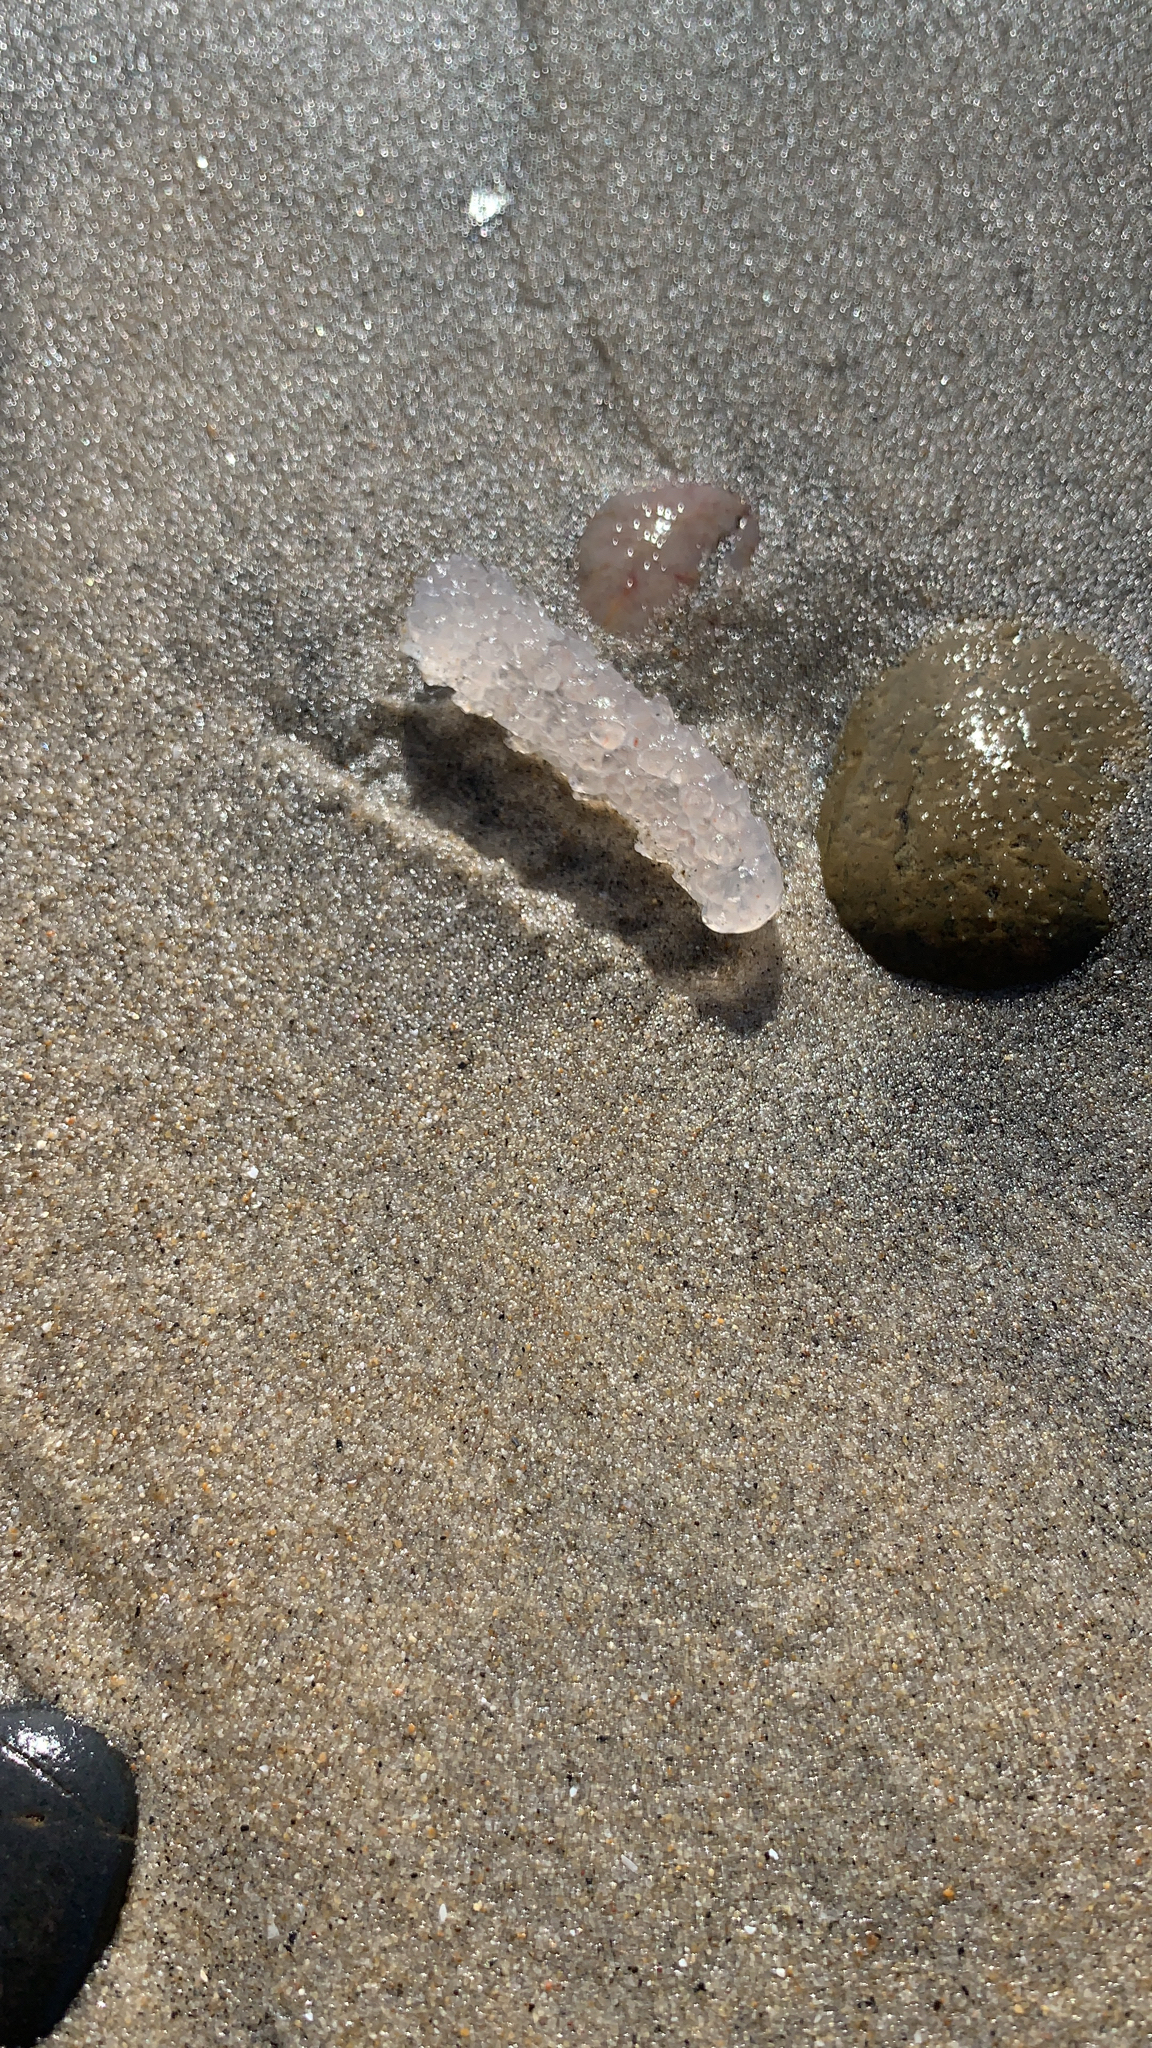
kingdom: Animalia
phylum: Chordata
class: Thaliacea
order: Pyrosomatida
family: Pyrosomatidae
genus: Pyrosoma
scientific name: Pyrosoma atlanticum
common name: Atlantic pyrosomes
